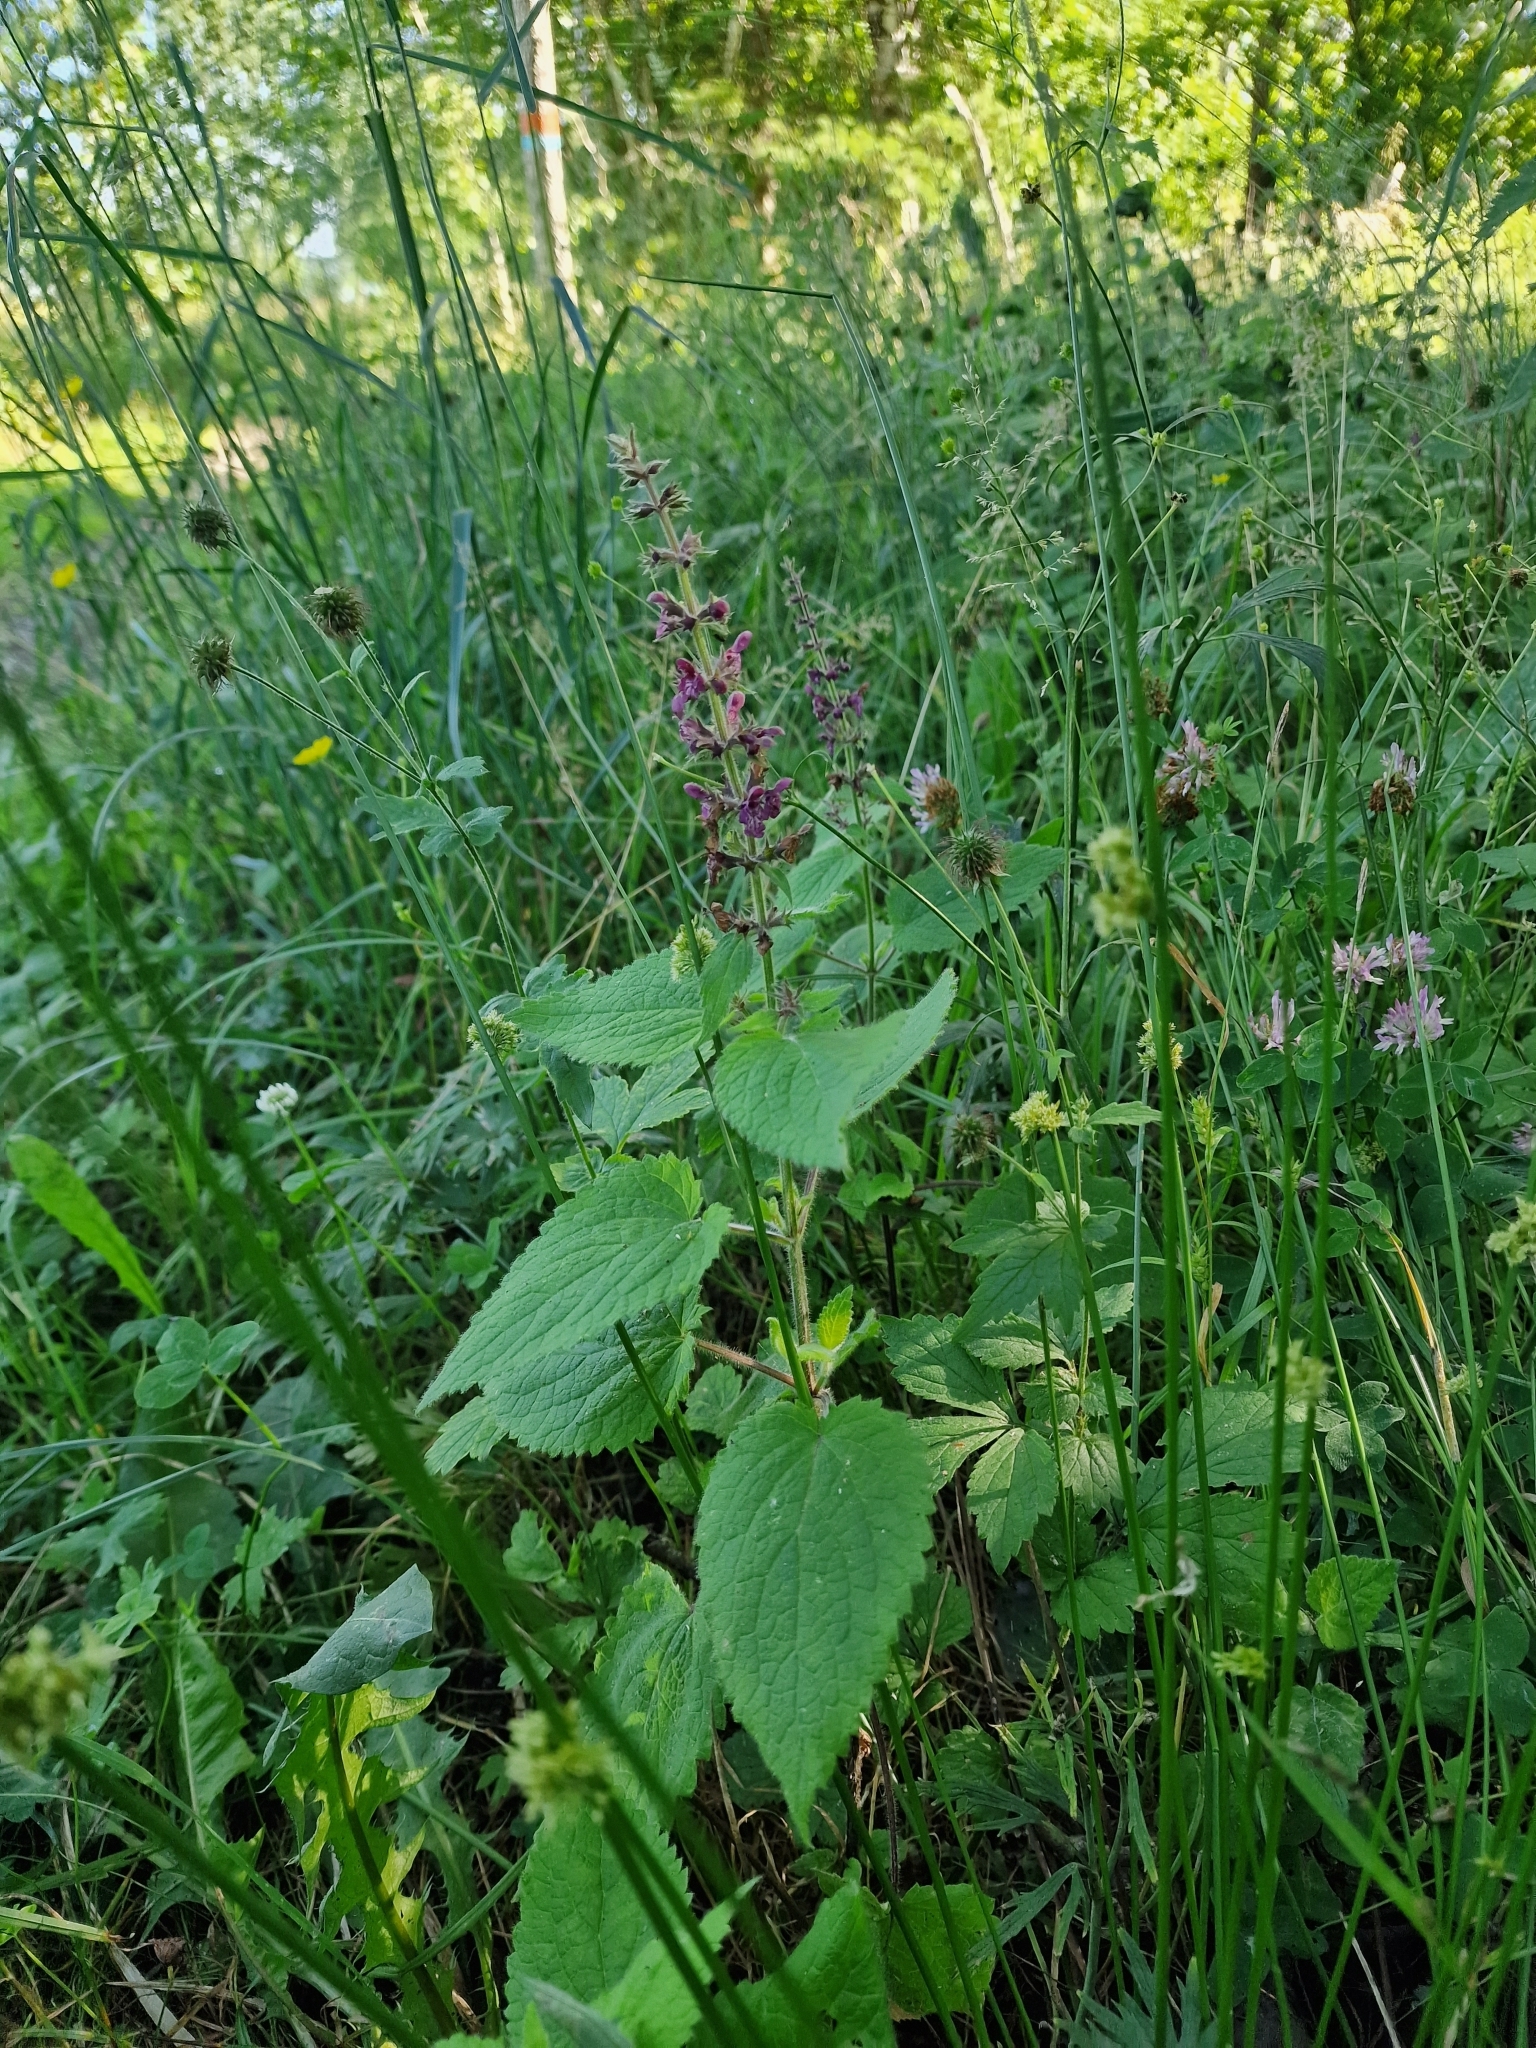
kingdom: Plantae
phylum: Tracheophyta
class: Magnoliopsida
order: Lamiales
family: Lamiaceae
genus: Stachys
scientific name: Stachys sylvatica
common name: Hedge woundwort
